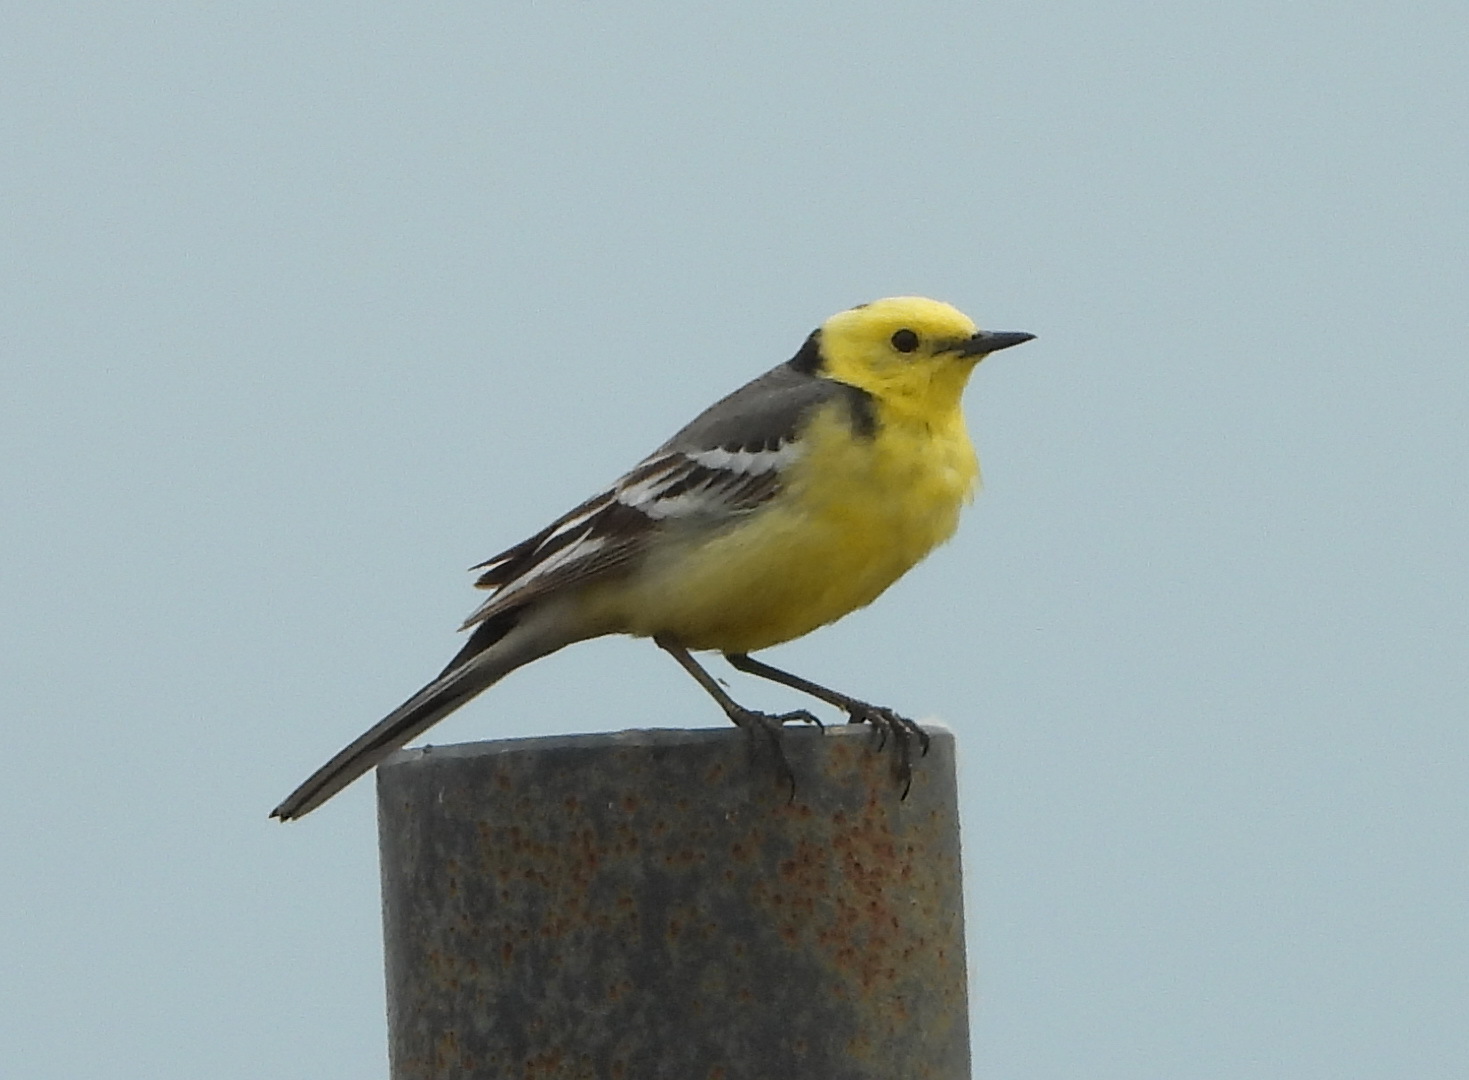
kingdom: Animalia
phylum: Chordata
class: Aves
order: Passeriformes
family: Motacillidae
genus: Motacilla
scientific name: Motacilla citreola
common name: Citrine wagtail
